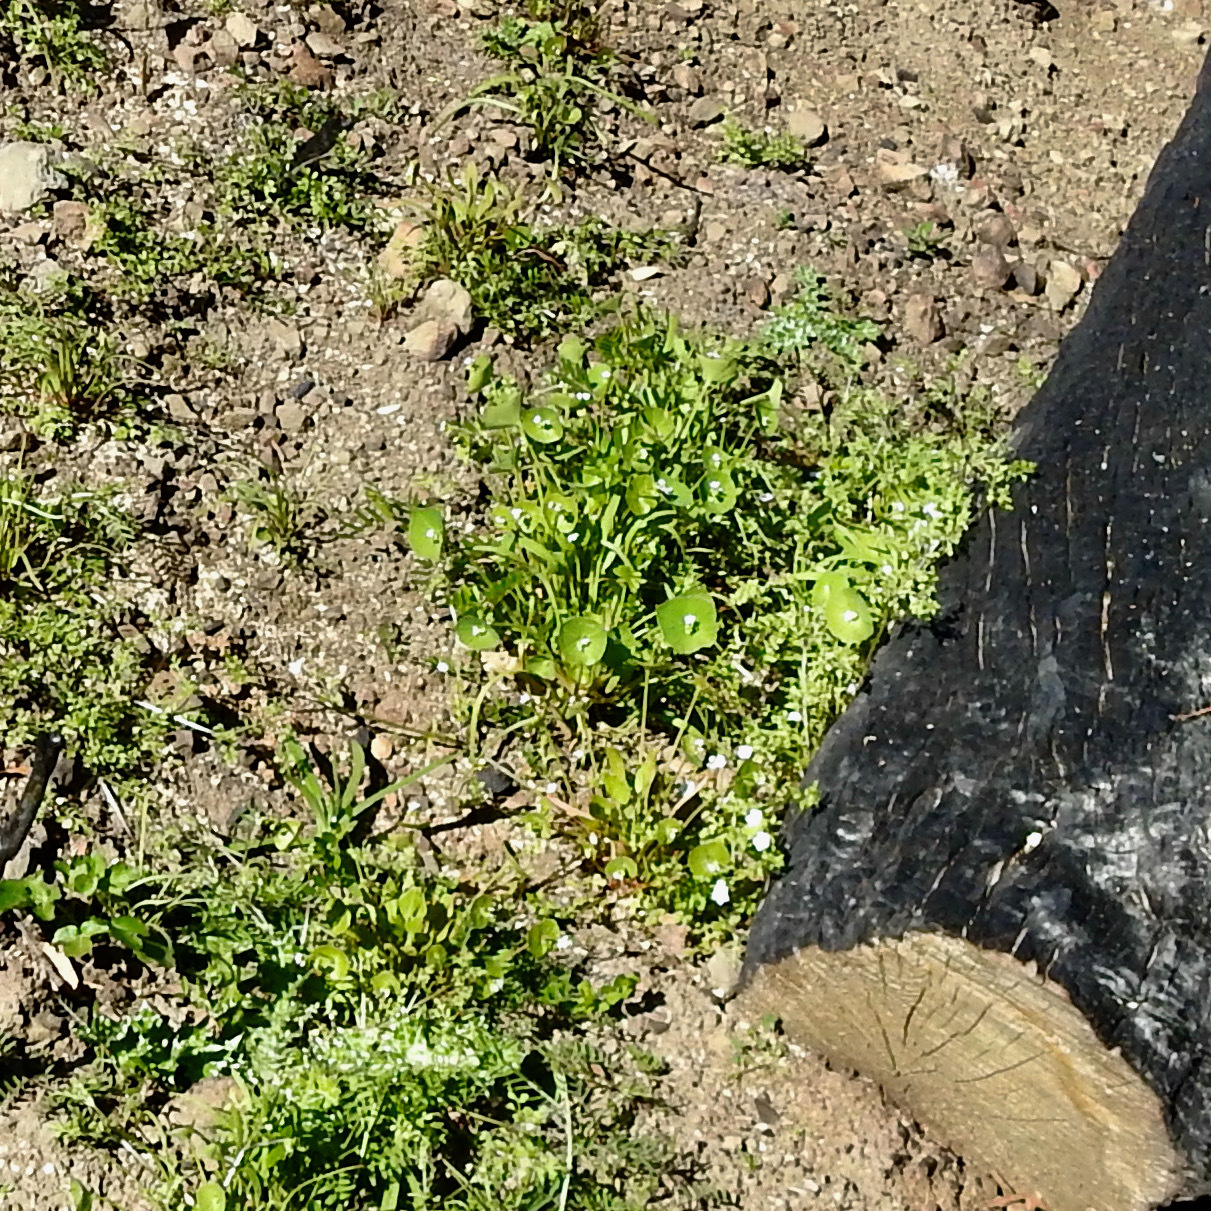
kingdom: Plantae
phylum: Tracheophyta
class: Magnoliopsida
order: Caryophyllales
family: Montiaceae
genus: Claytonia
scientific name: Claytonia perfoliata
